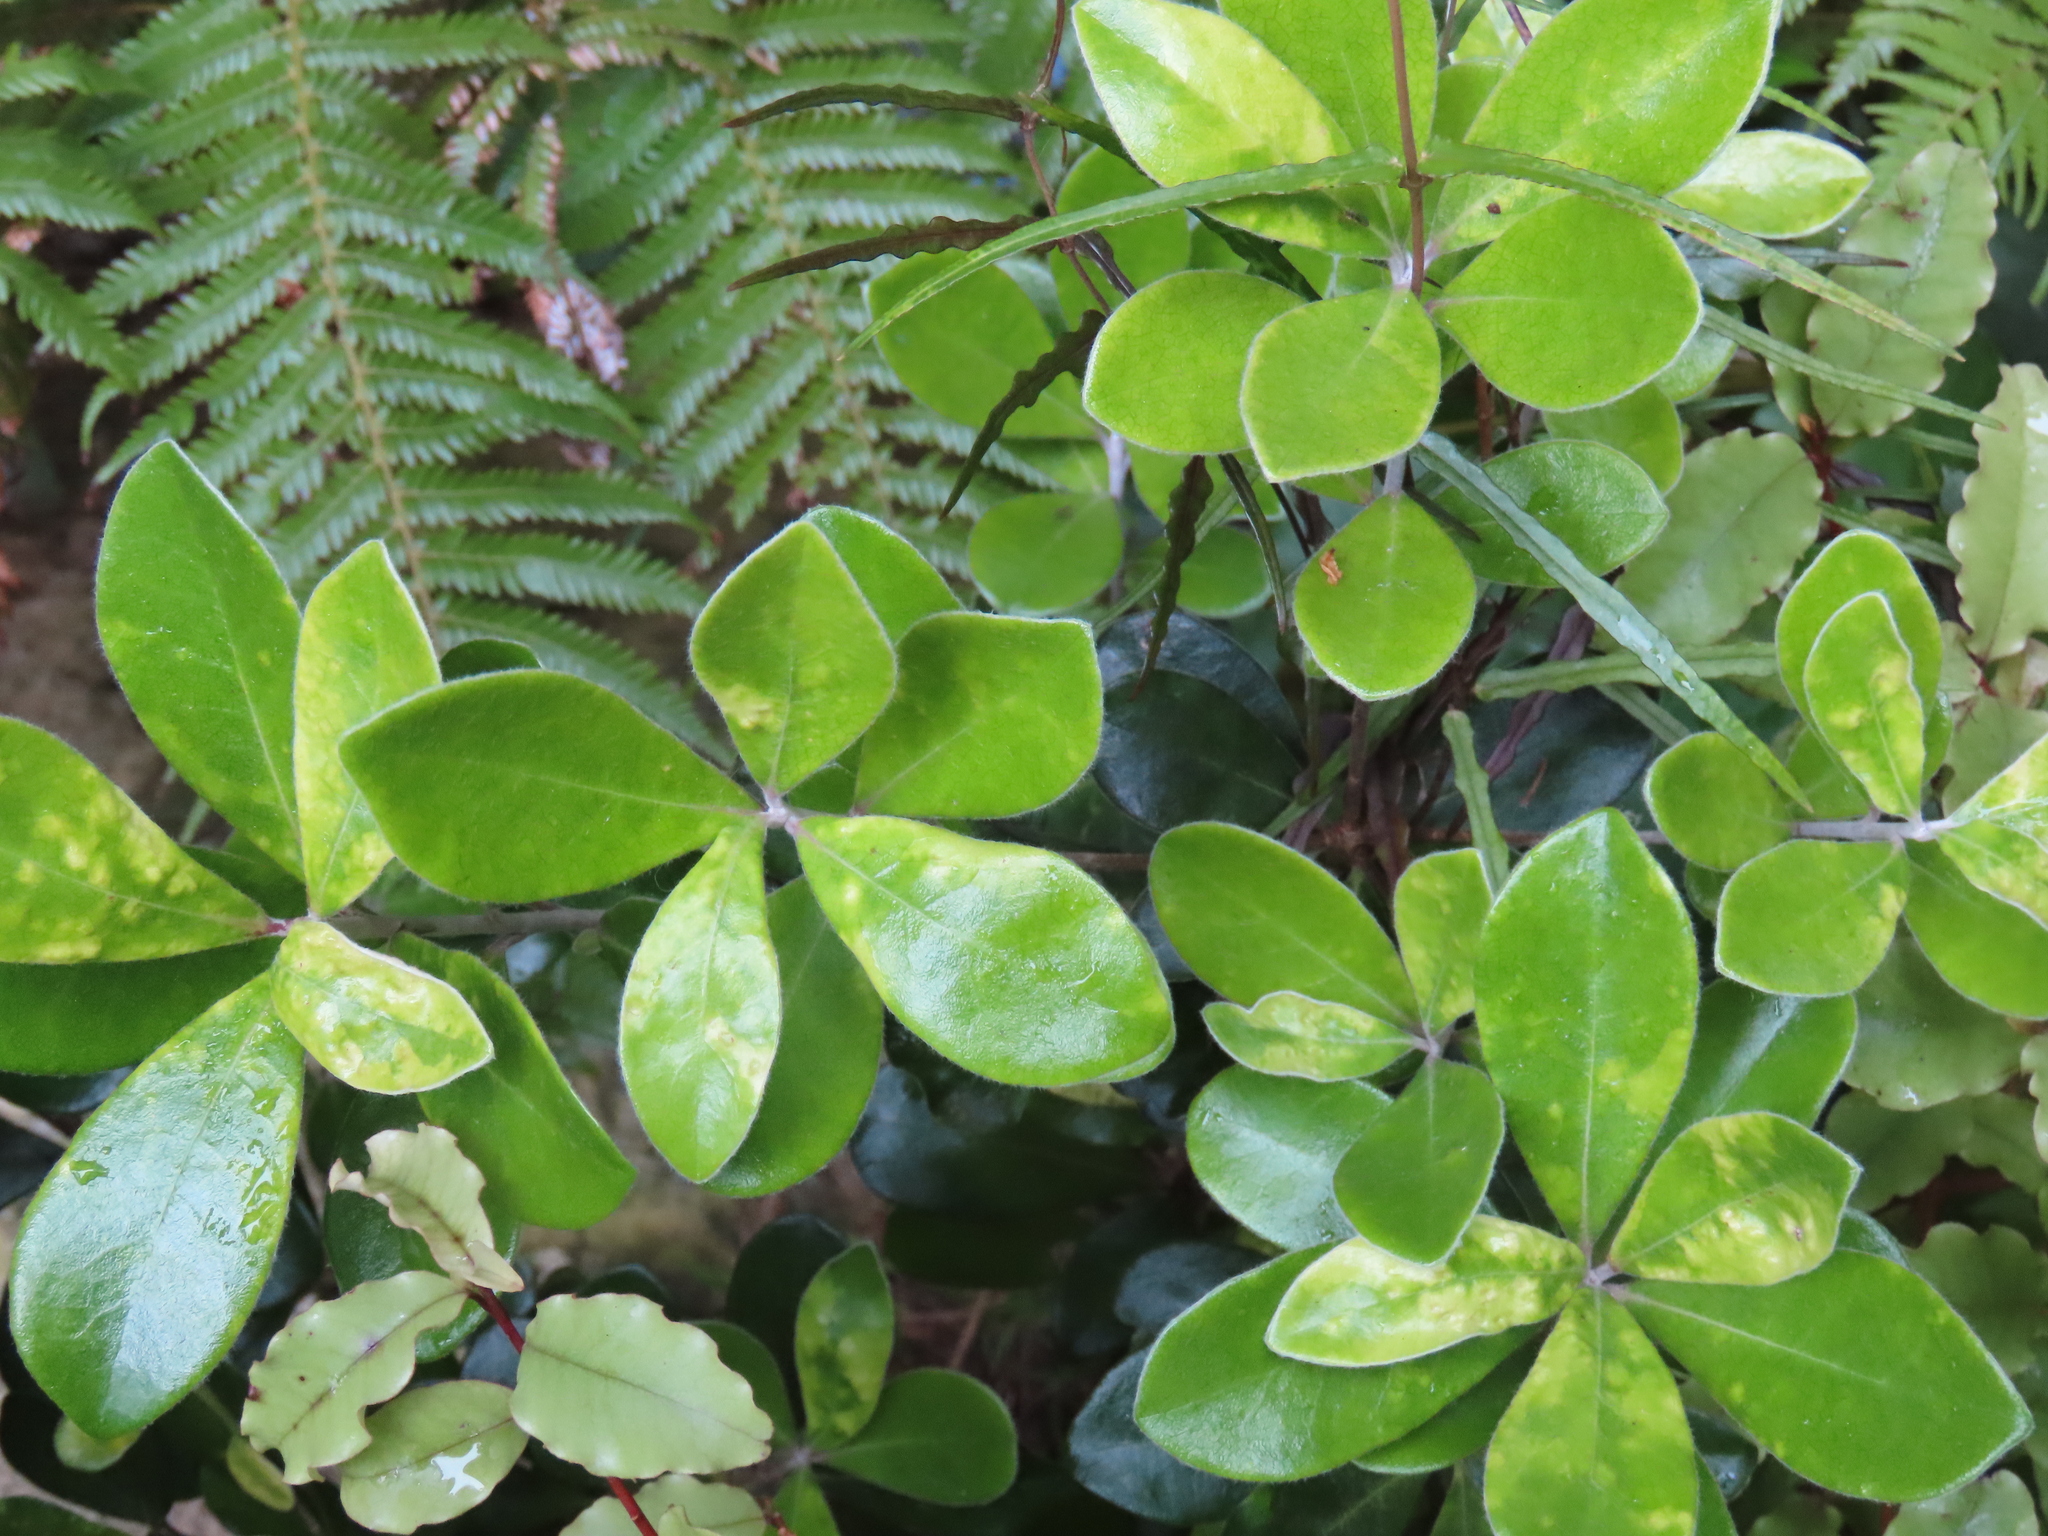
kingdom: Plantae
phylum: Tracheophyta
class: Magnoliopsida
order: Apiales
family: Pittosporaceae
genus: Pittosporum
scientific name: Pittosporum crassifolium
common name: Karo
